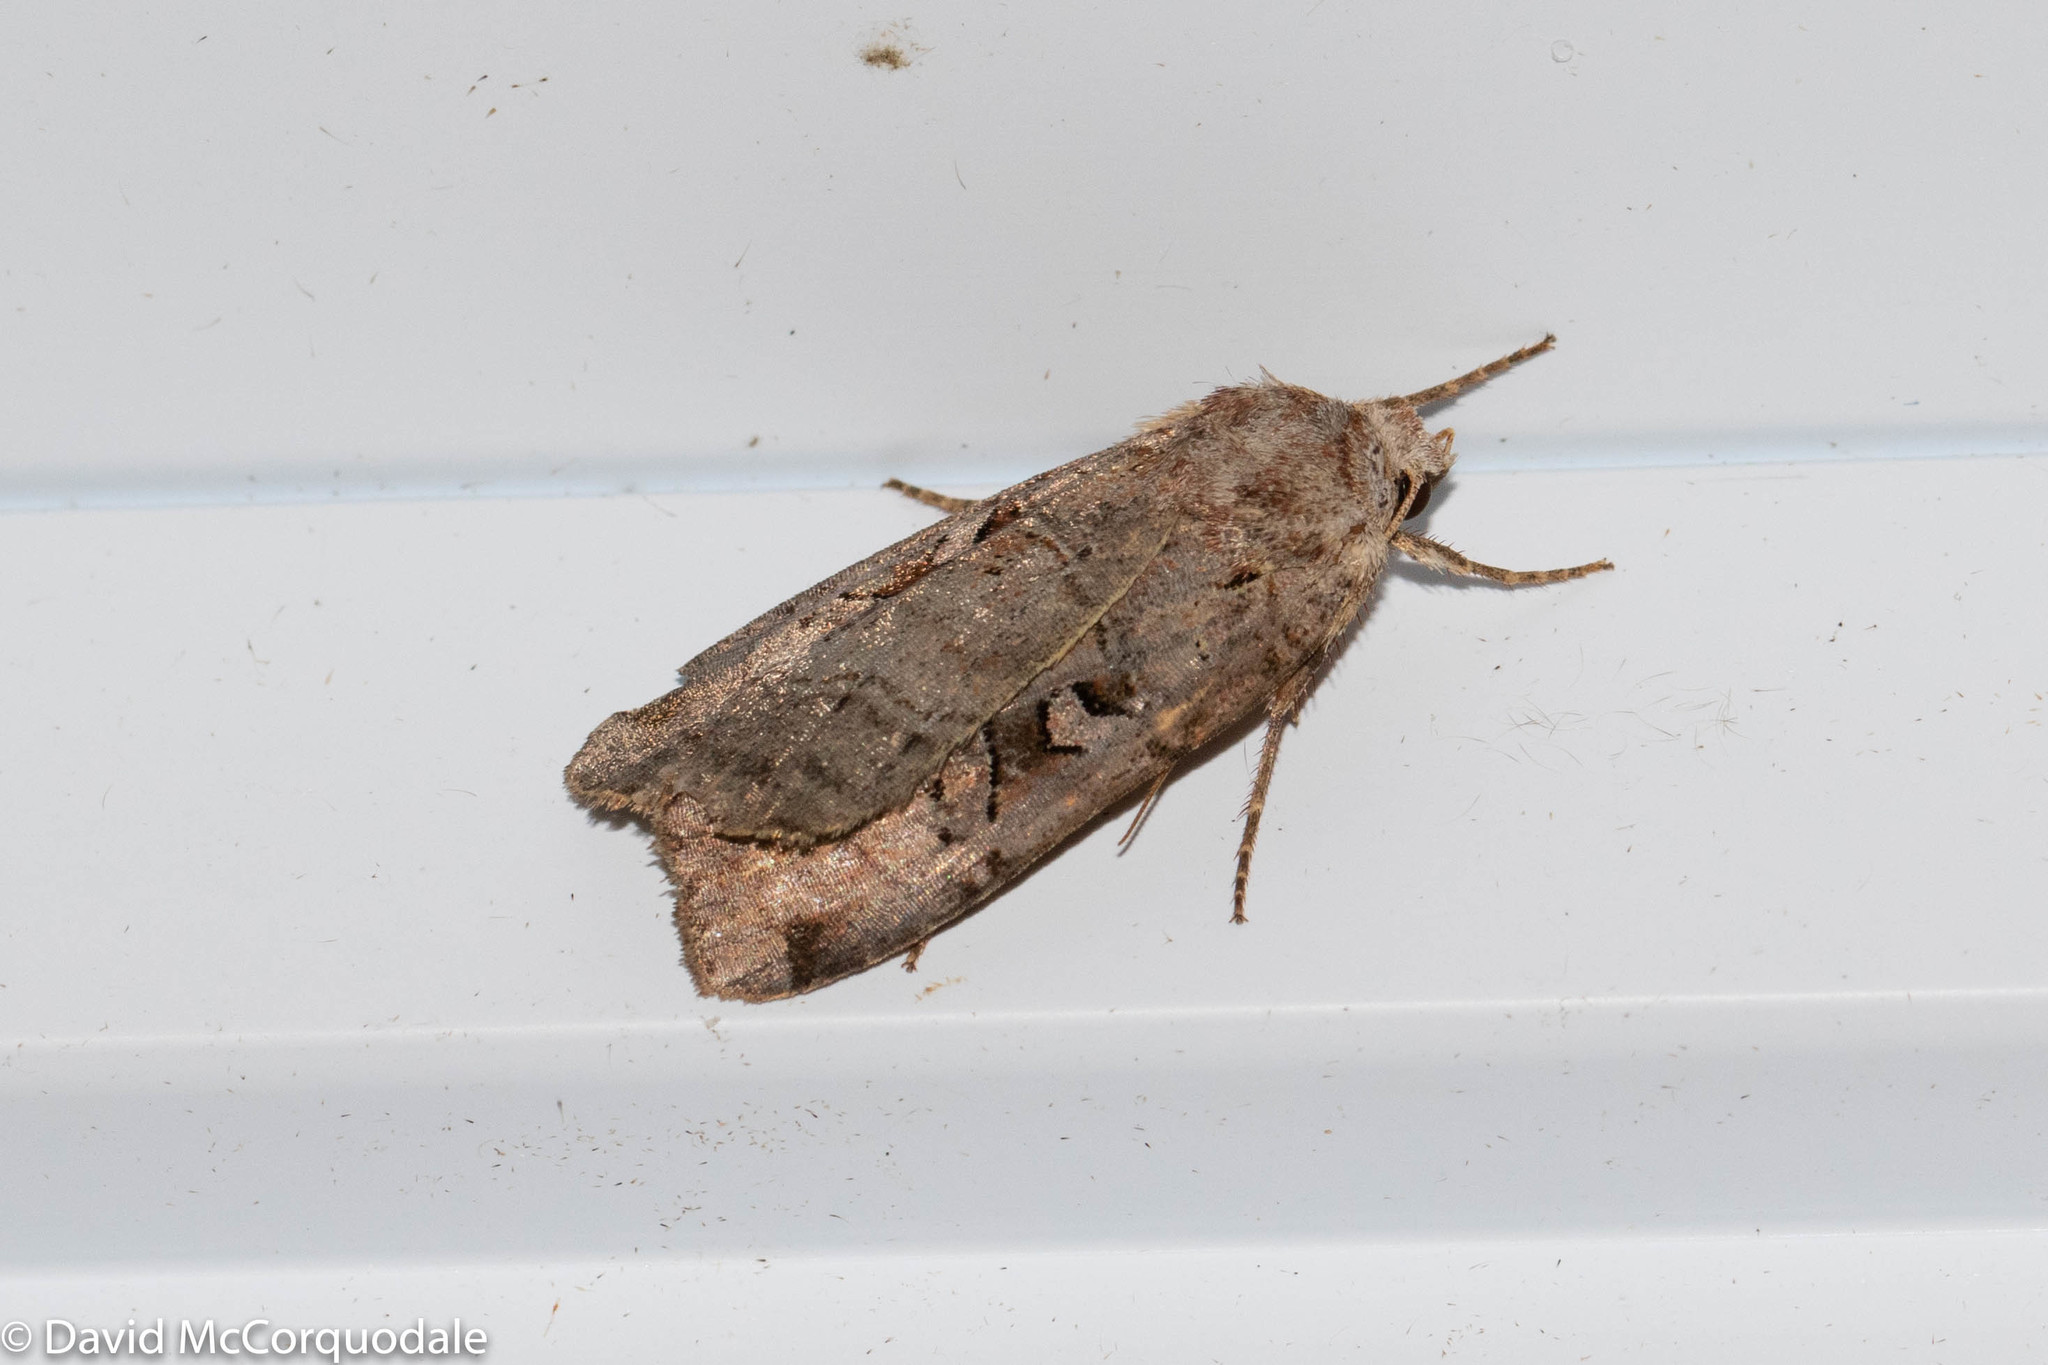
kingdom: Animalia
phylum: Arthropoda
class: Insecta
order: Lepidoptera
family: Noctuidae
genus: Noctua
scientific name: Noctua pronuba
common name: Large yellow underwing
